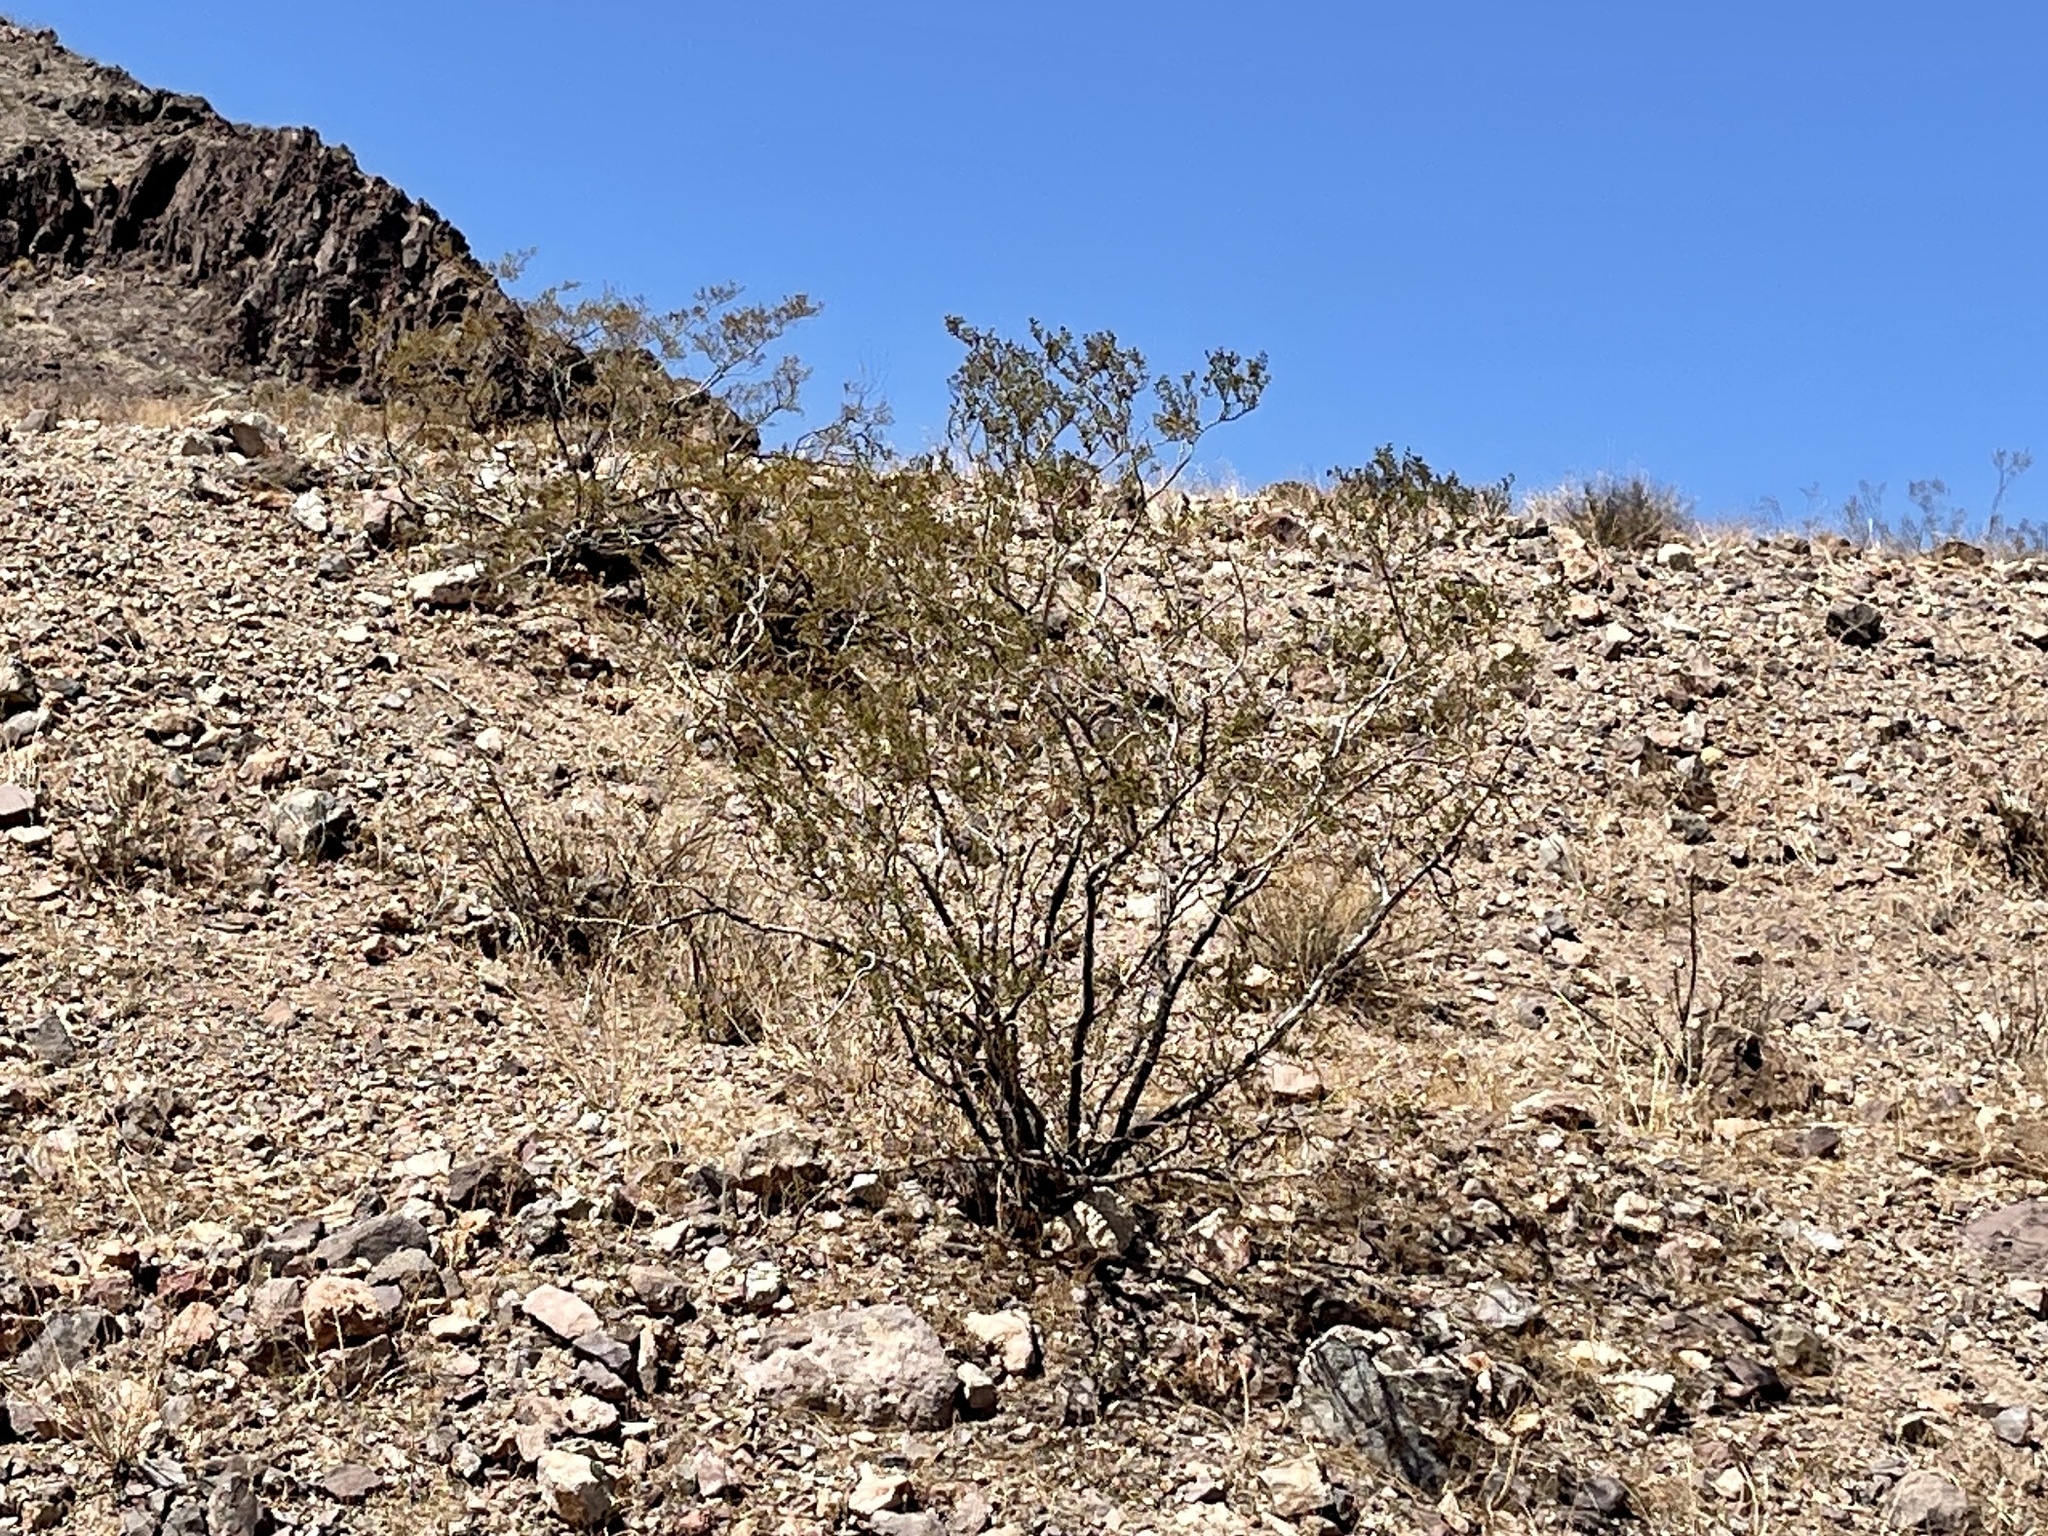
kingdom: Plantae
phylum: Tracheophyta
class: Magnoliopsida
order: Zygophyllales
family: Zygophyllaceae
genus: Larrea
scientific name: Larrea tridentata
